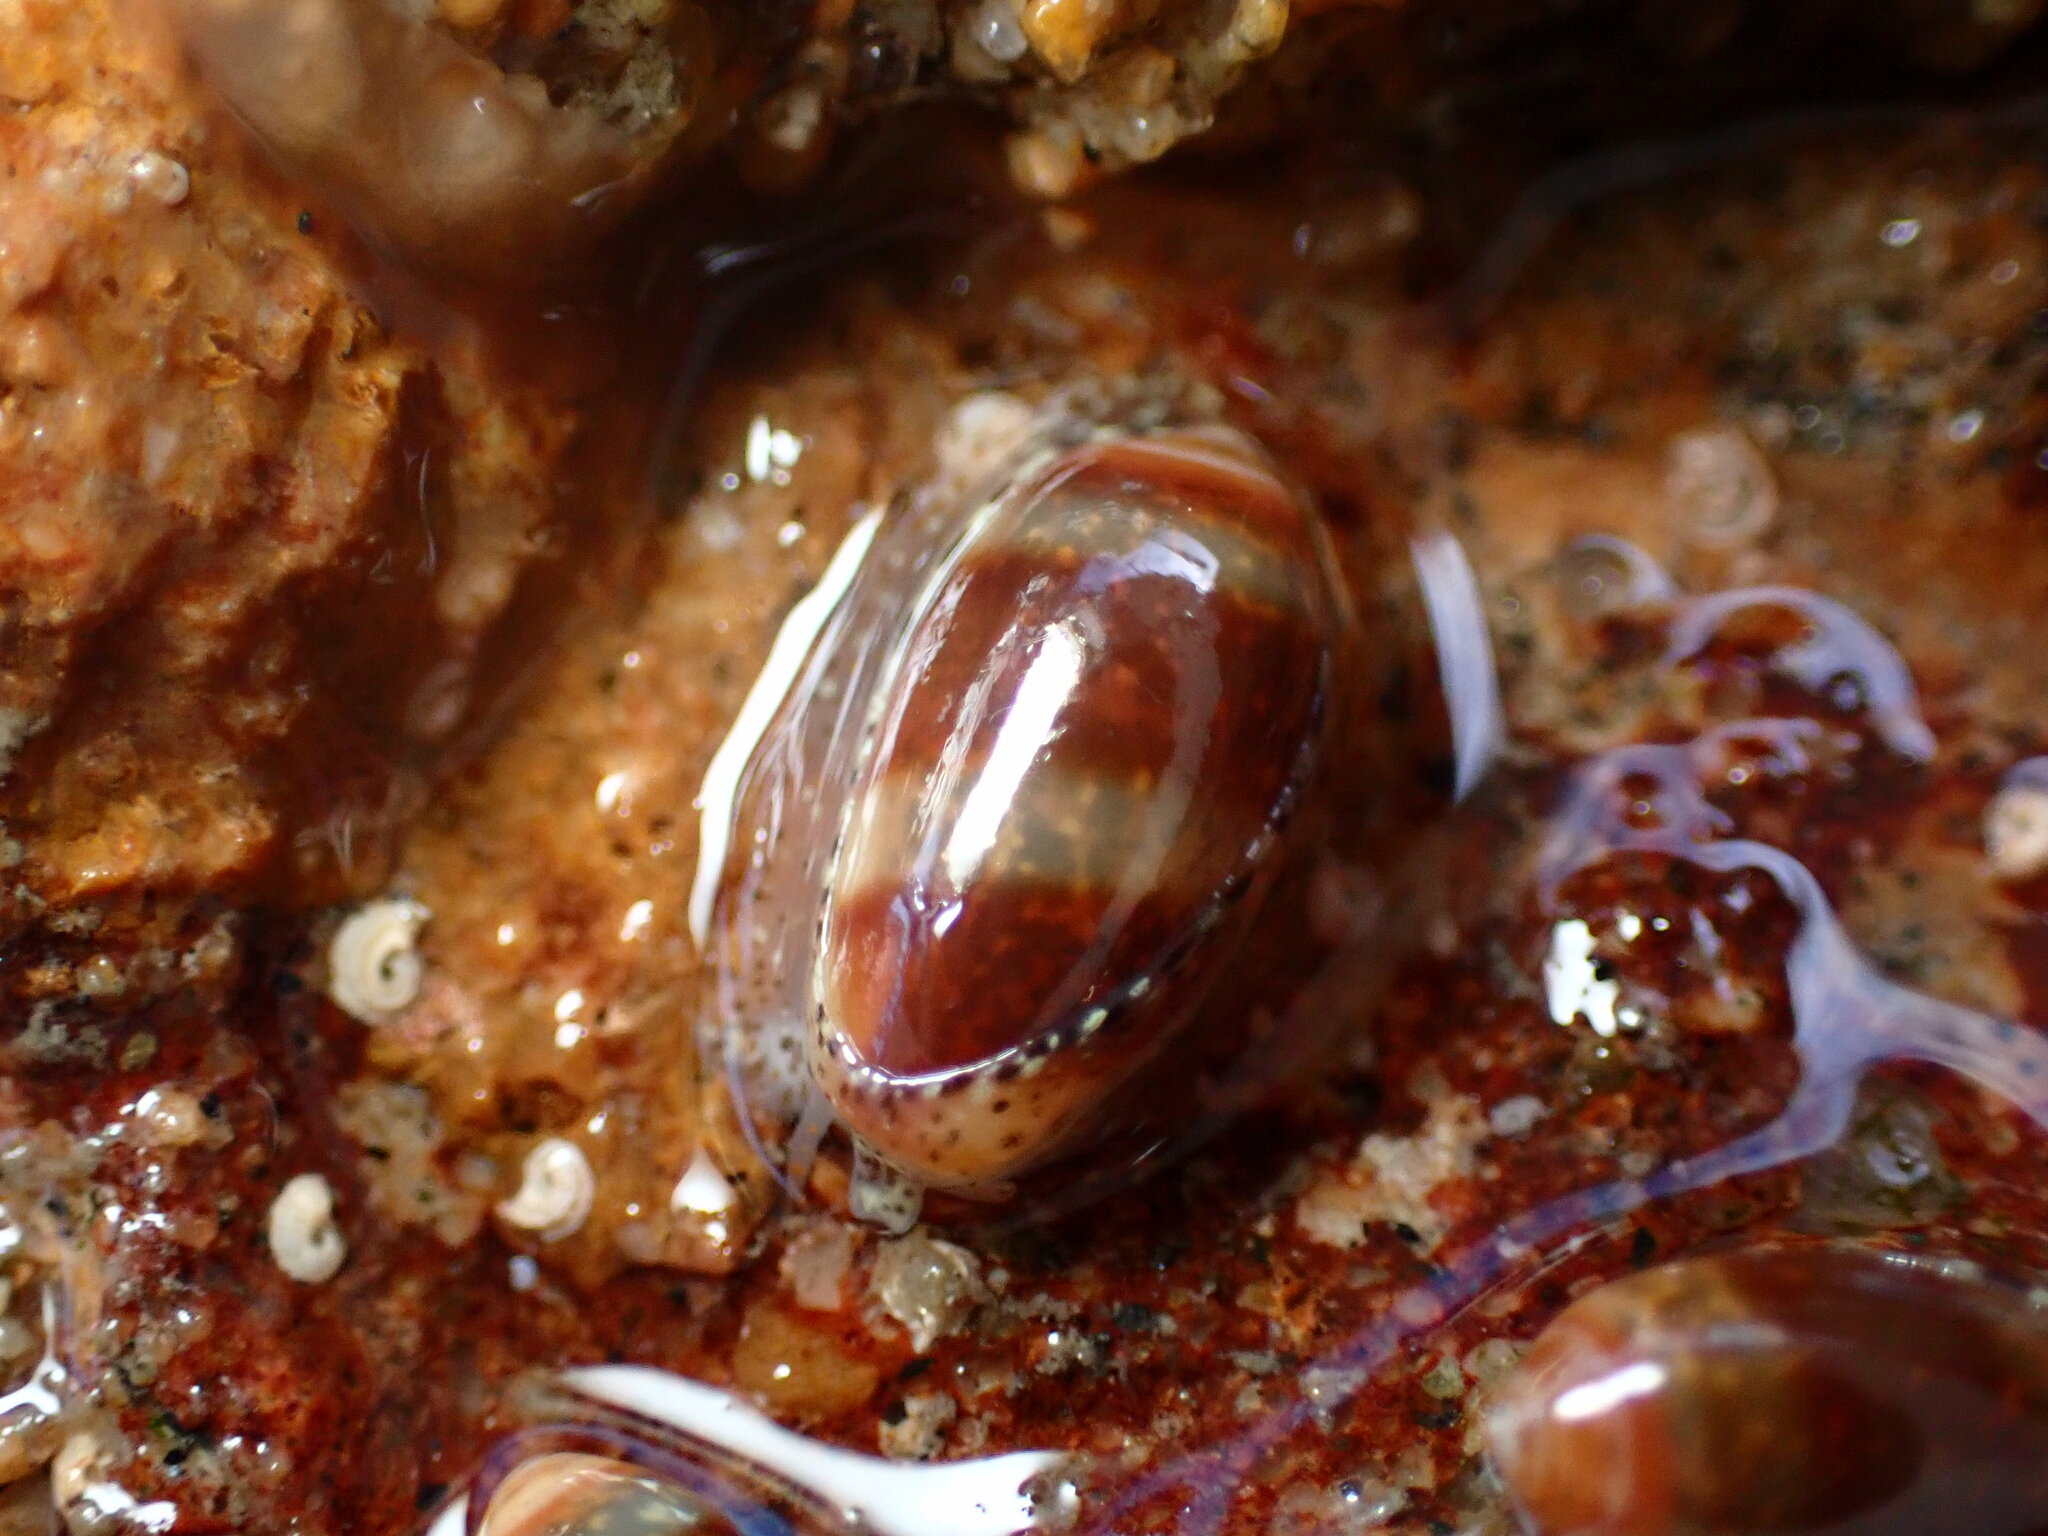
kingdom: Animalia
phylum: Mollusca
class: Gastropoda
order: Neogastropoda
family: Marginellidae
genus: Volvarina
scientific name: Volvarina taeniolata
